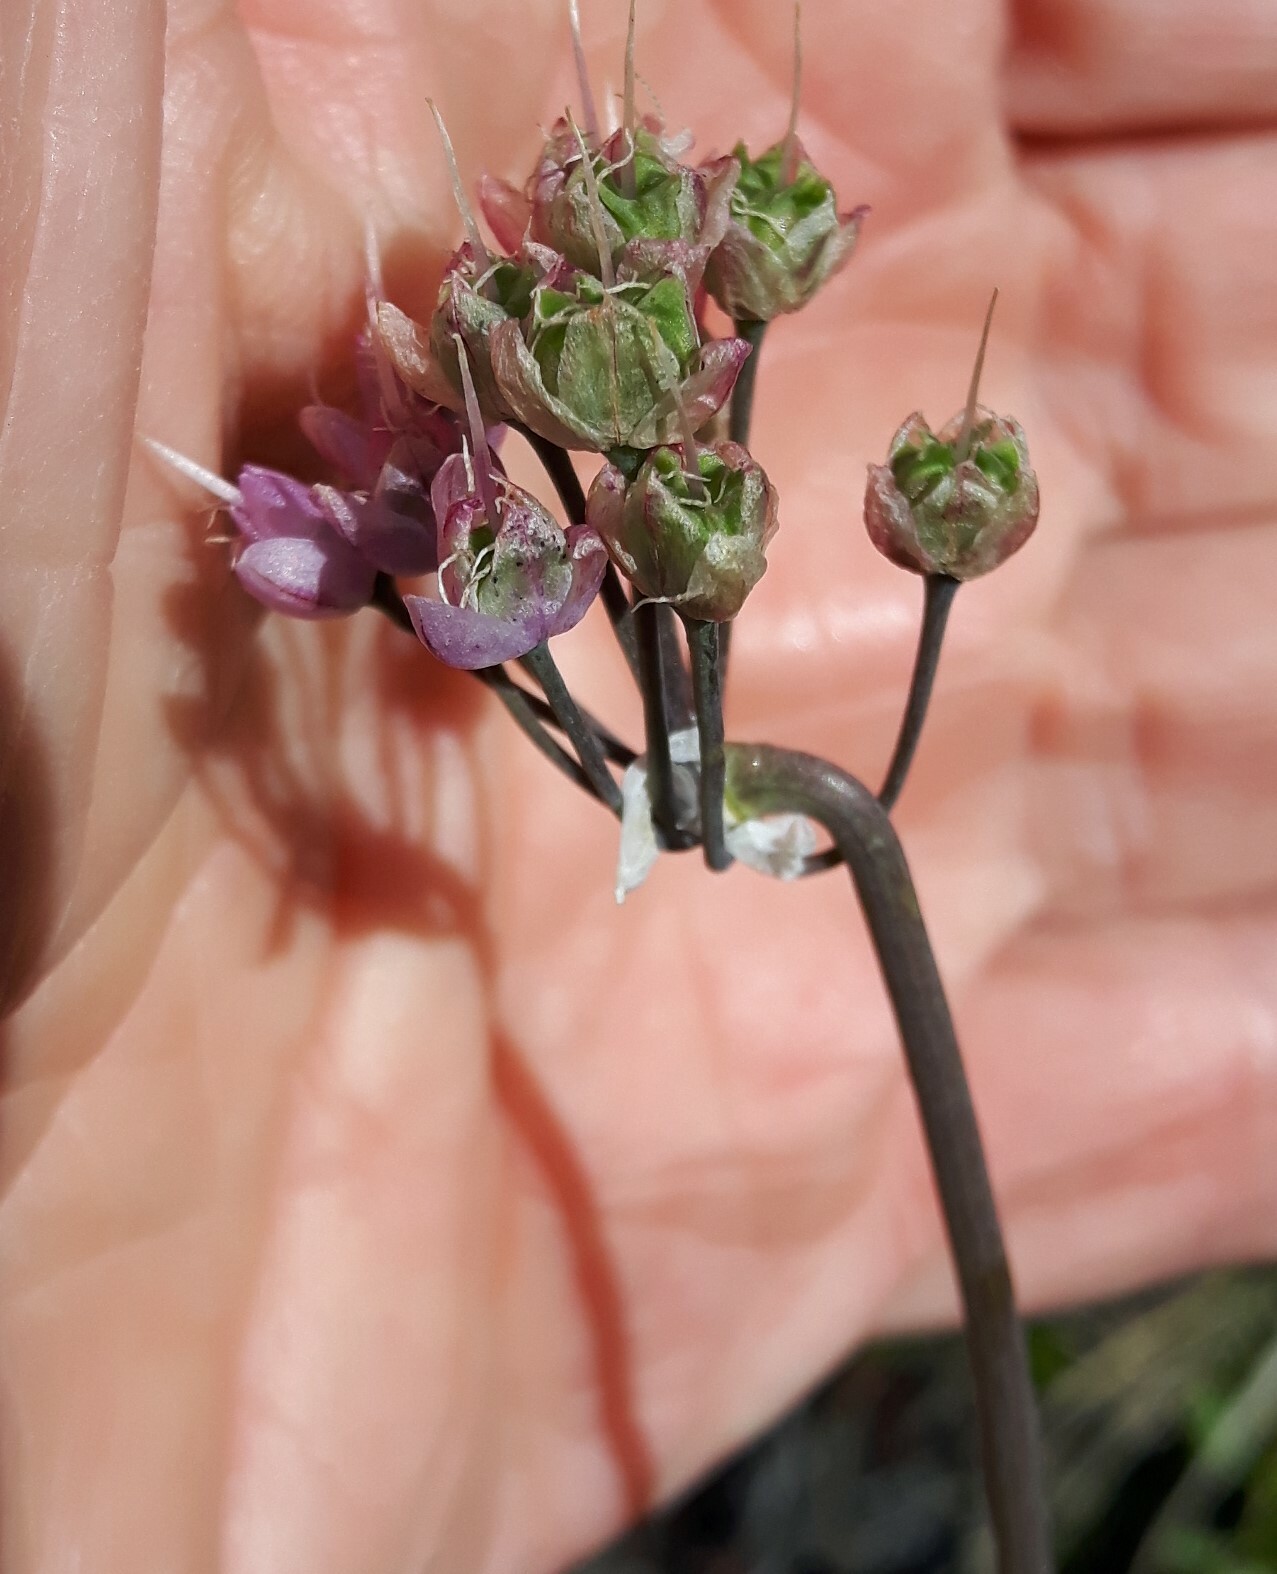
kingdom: Plantae
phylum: Tracheophyta
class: Liliopsida
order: Asparagales
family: Amaryllidaceae
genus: Allium
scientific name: Allium cernuum
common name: Nodding onion
